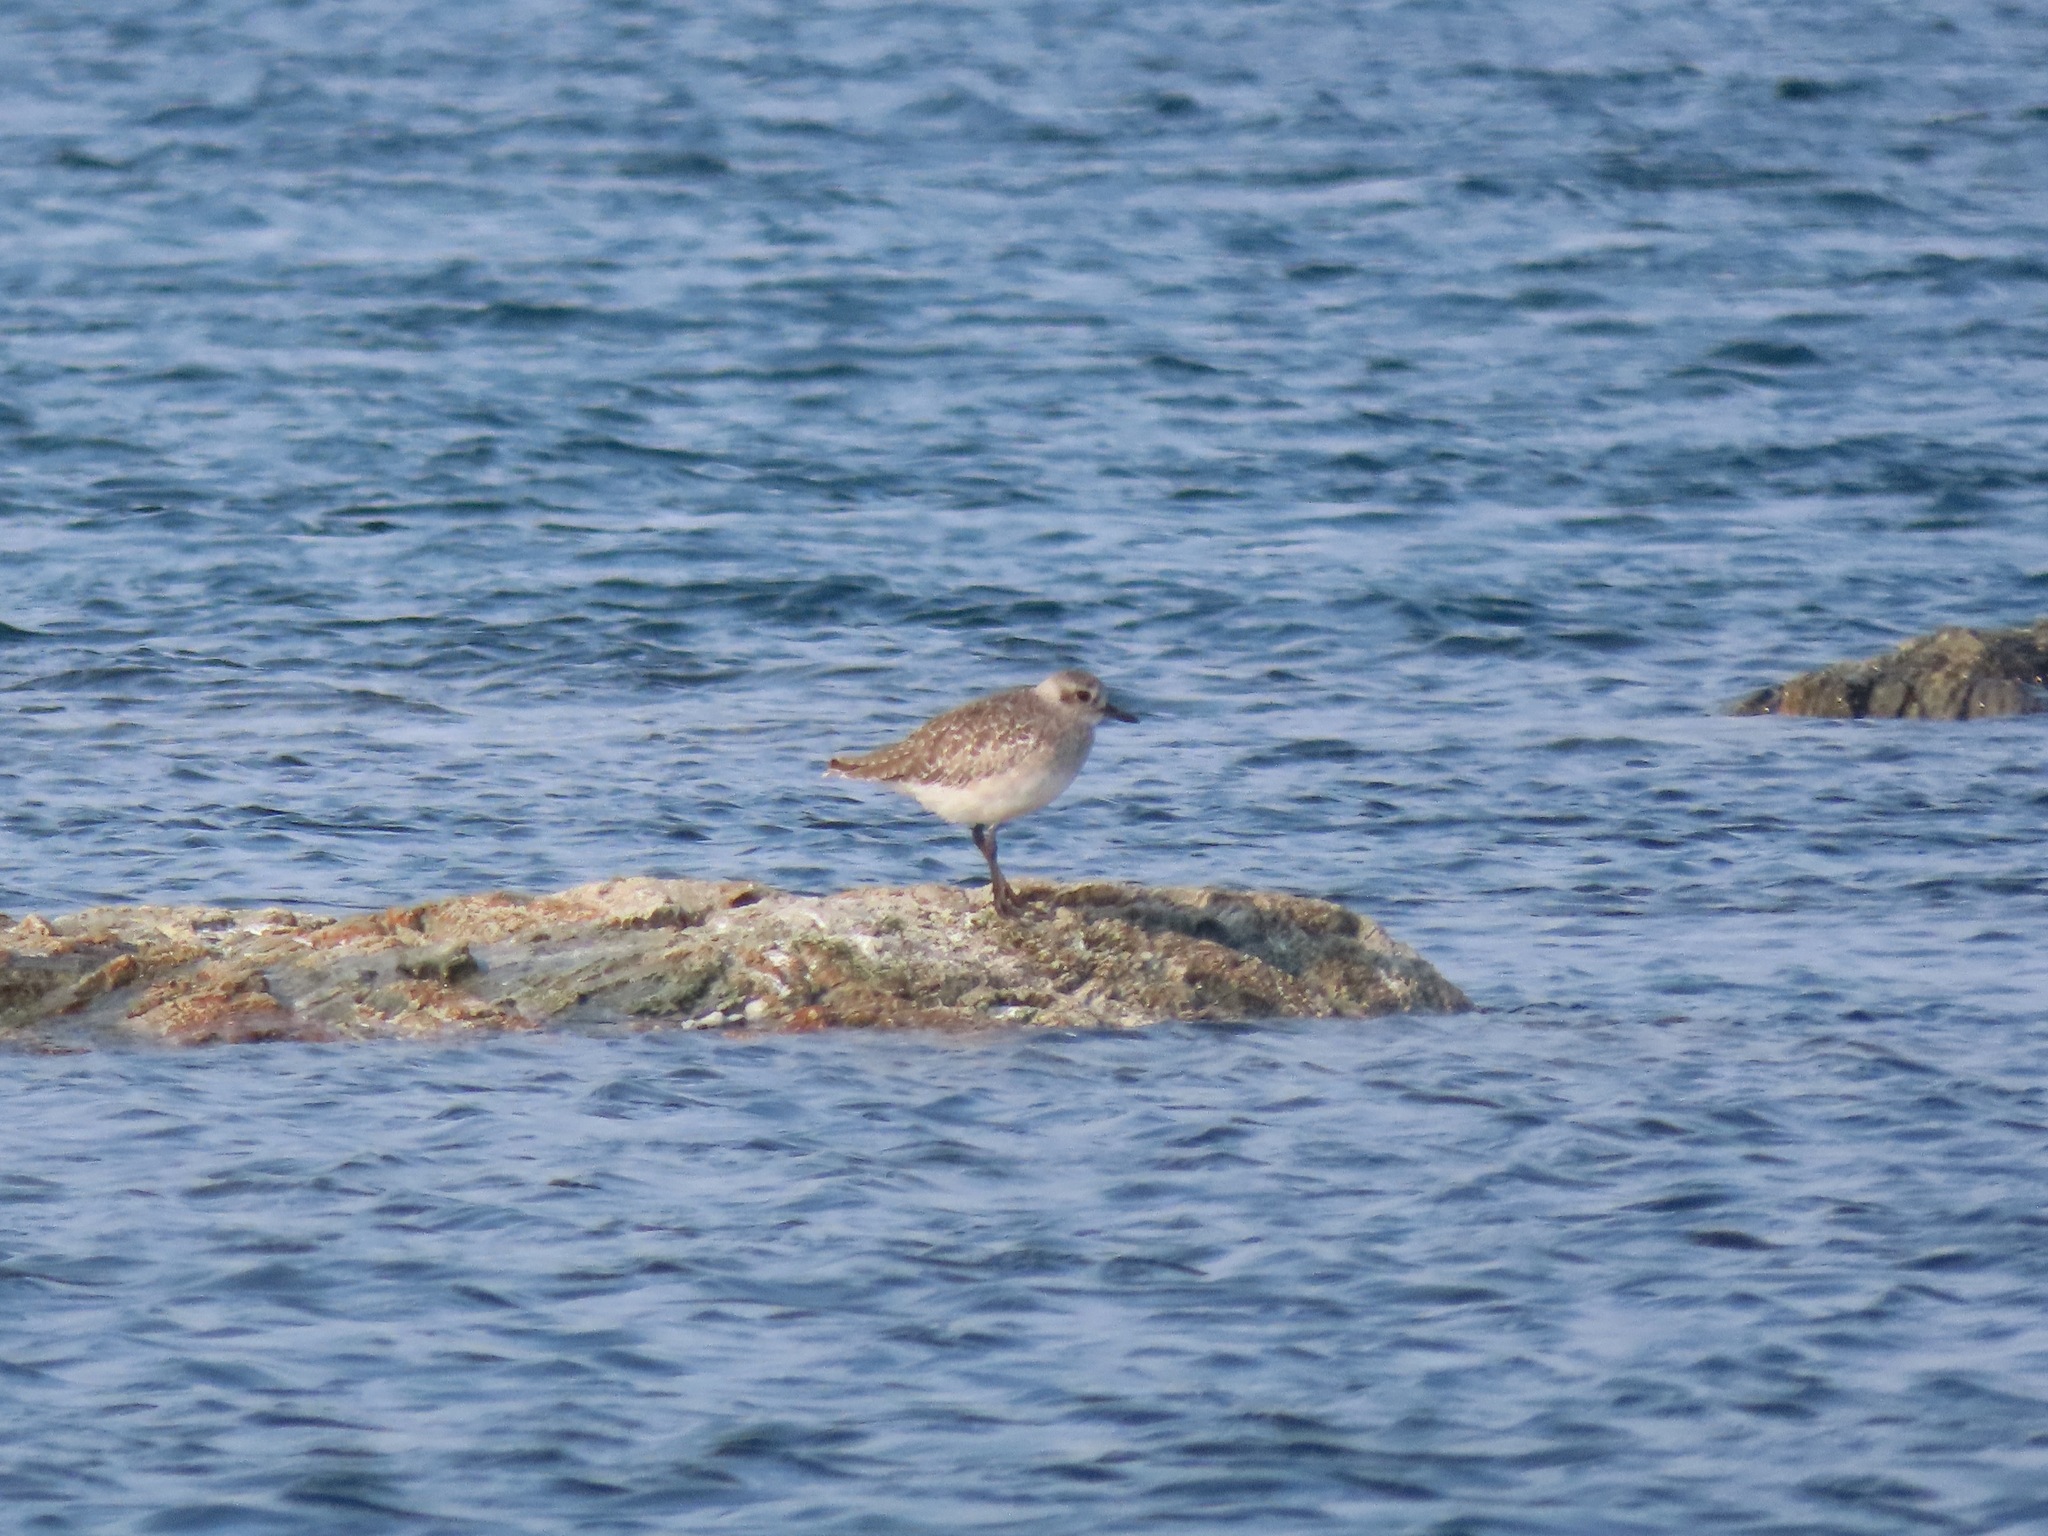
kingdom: Animalia
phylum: Chordata
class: Aves
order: Charadriiformes
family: Charadriidae
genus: Pluvialis
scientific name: Pluvialis squatarola
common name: Grey plover
